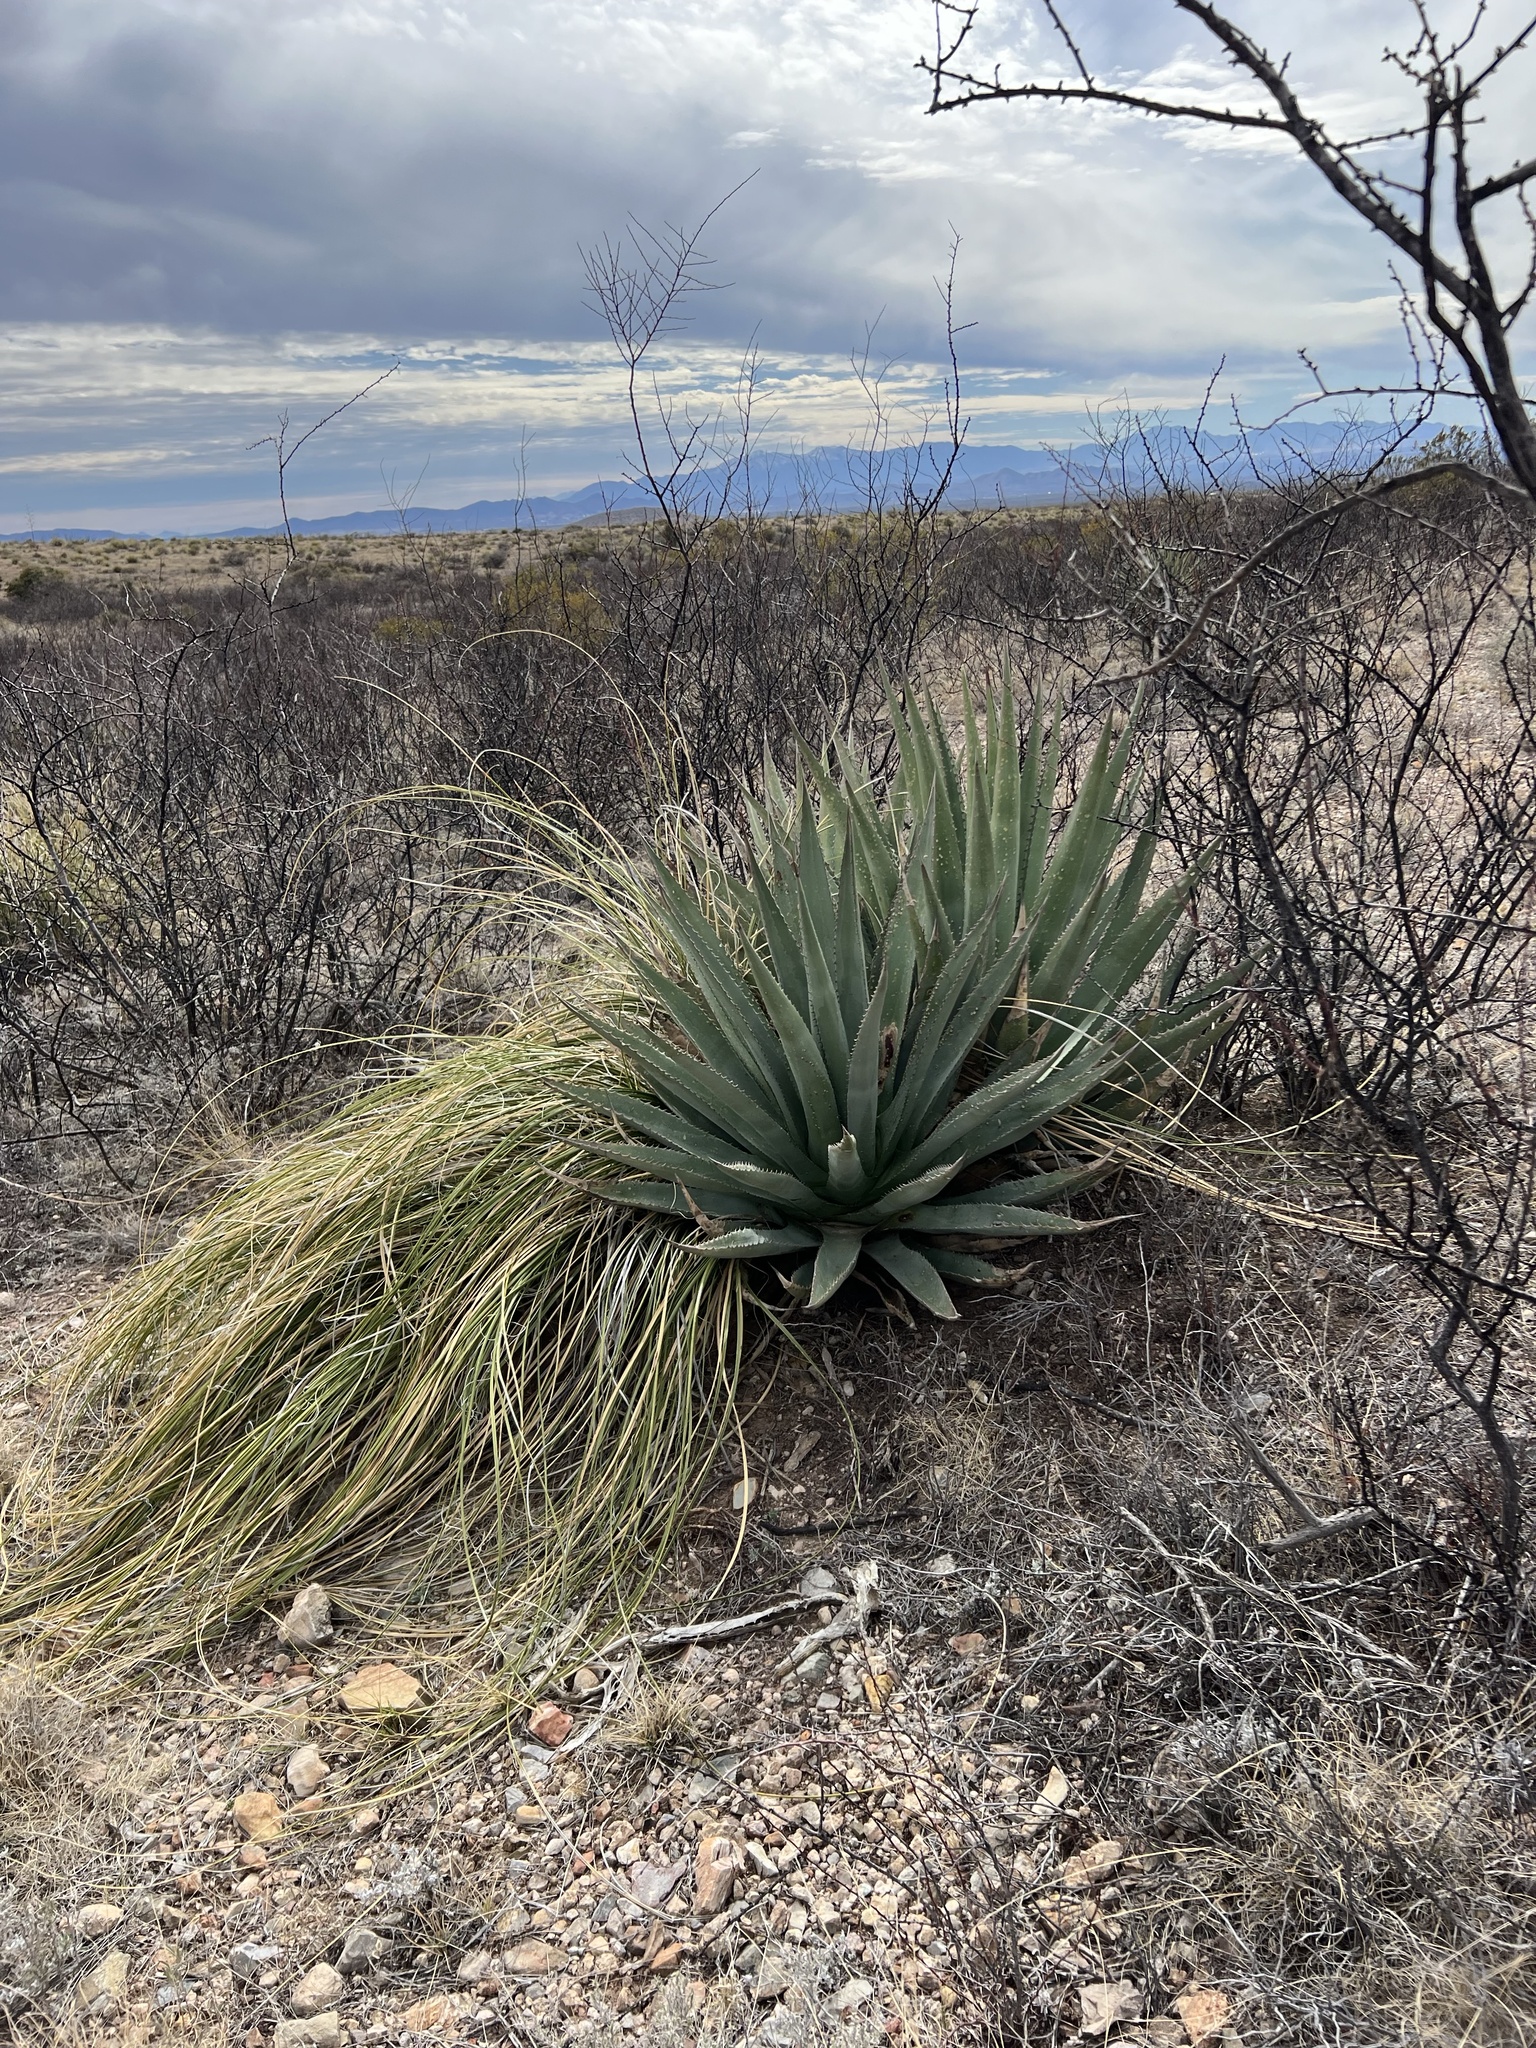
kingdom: Plantae
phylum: Tracheophyta
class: Liliopsida
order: Asparagales
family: Asparagaceae
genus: Agave
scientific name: Agave palmeri
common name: Palmer agave
